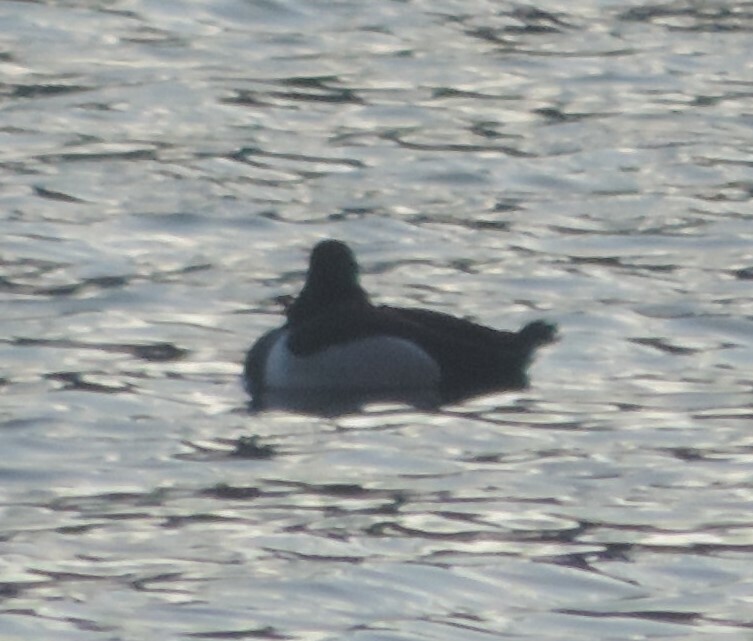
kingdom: Animalia
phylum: Chordata
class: Aves
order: Anseriformes
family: Anatidae
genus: Aythya
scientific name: Aythya collaris
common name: Ring-necked duck
